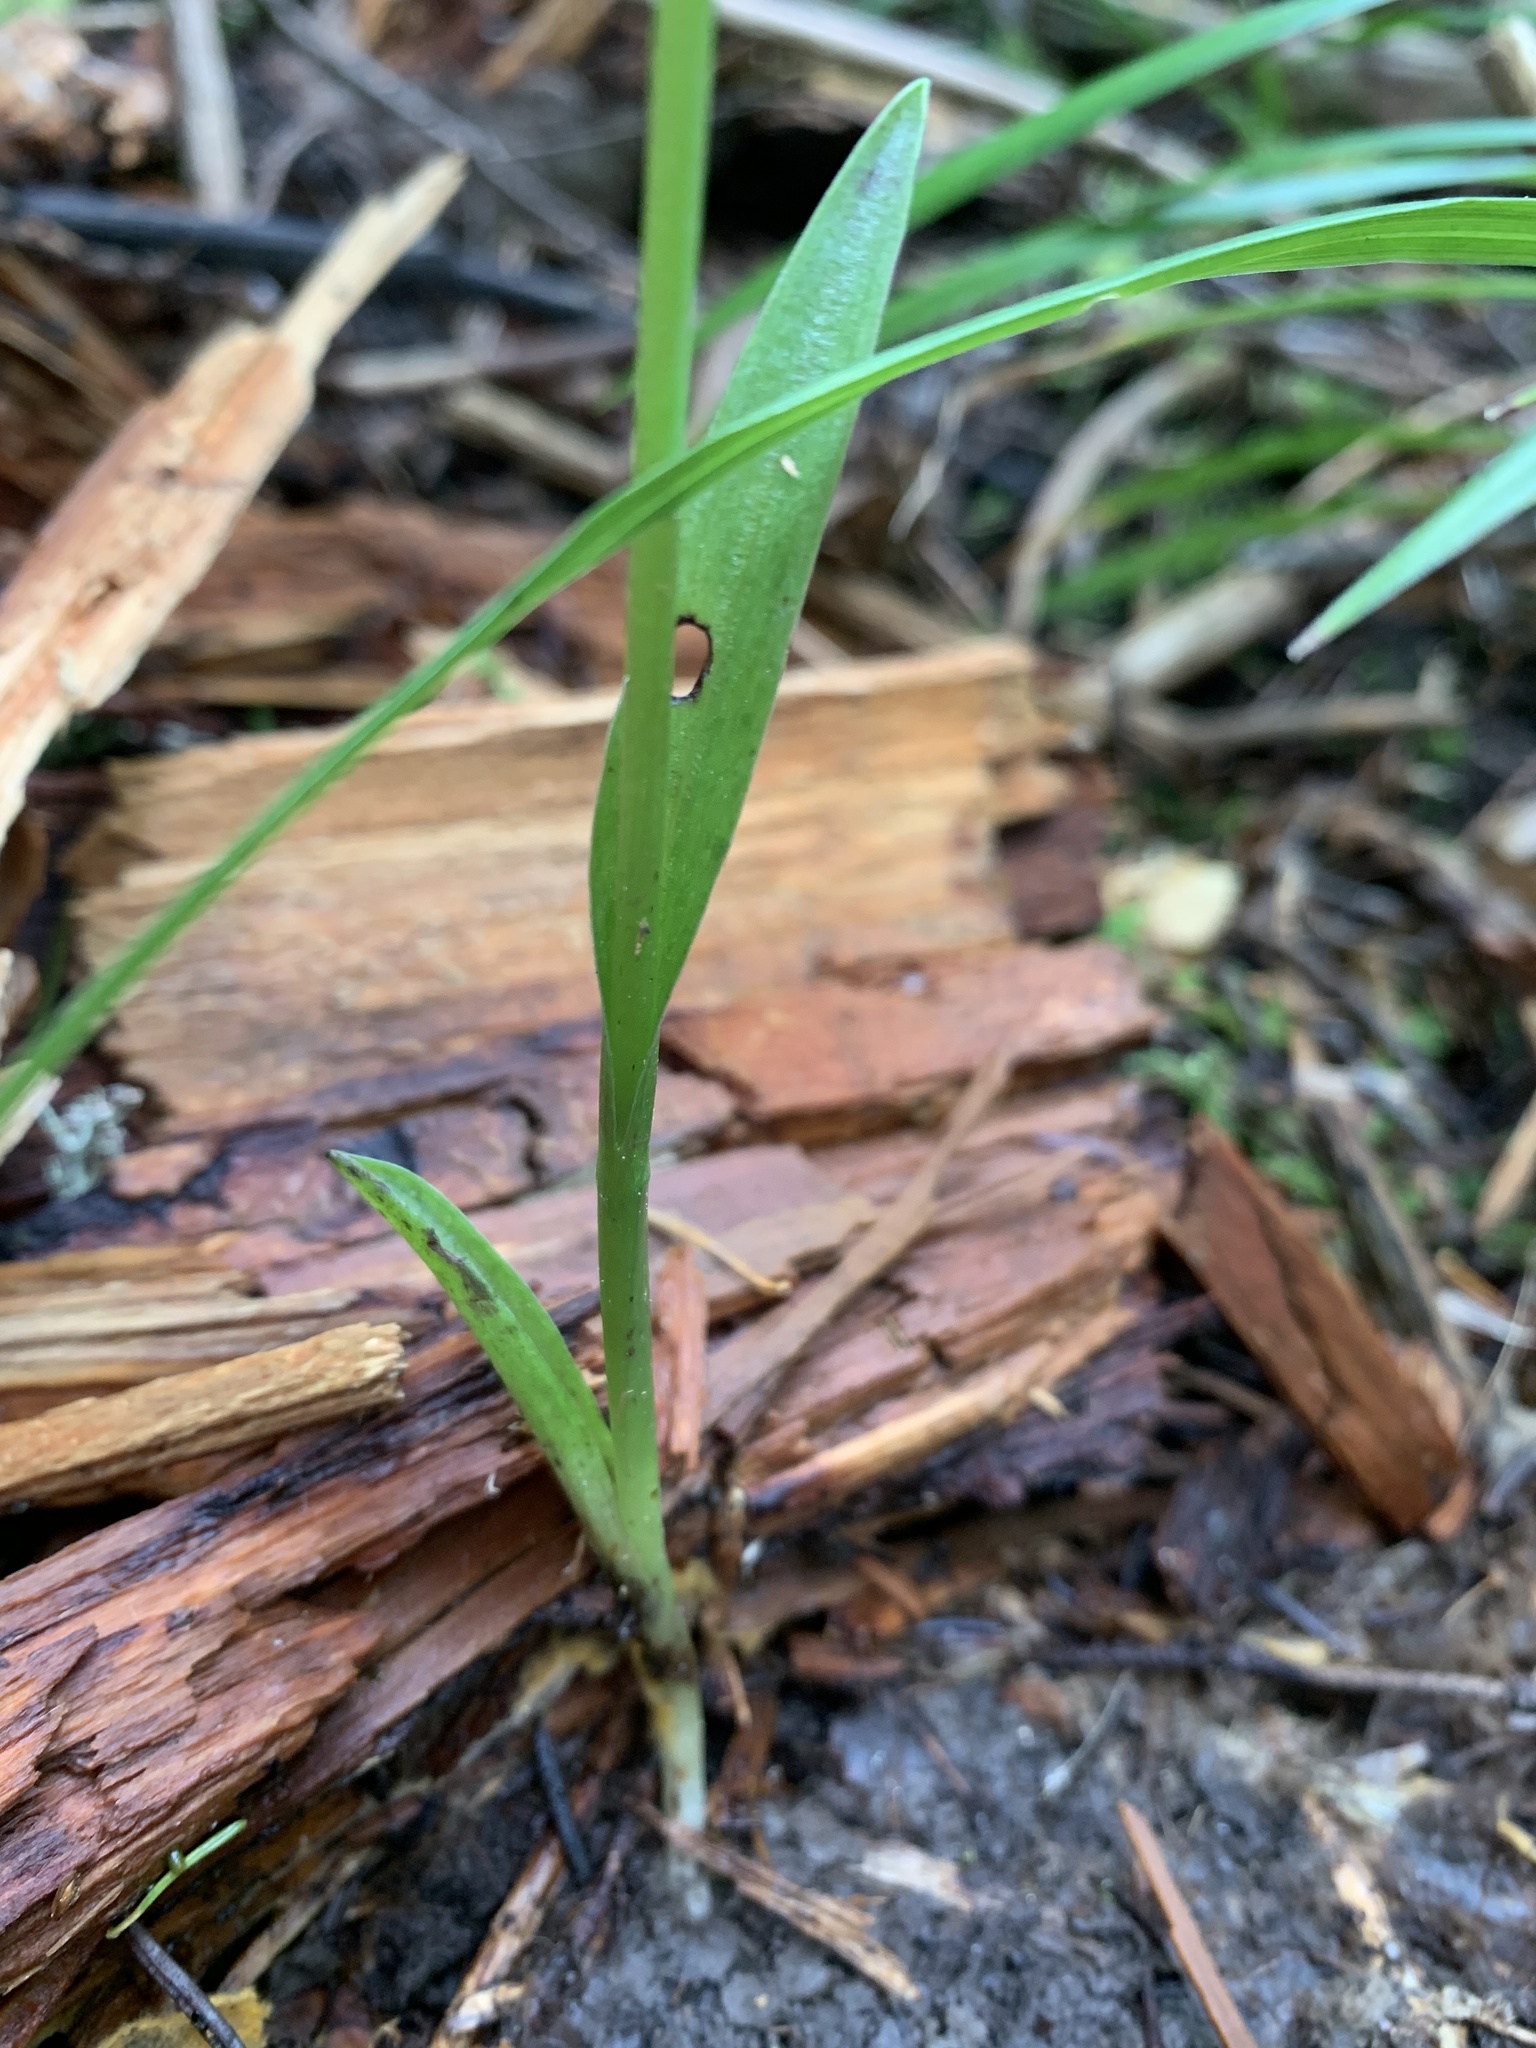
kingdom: Plantae
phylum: Tracheophyta
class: Liliopsida
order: Asparagales
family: Orchidaceae
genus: Platanthera
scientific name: Platanthera aquilonis
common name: Northern green orchid
